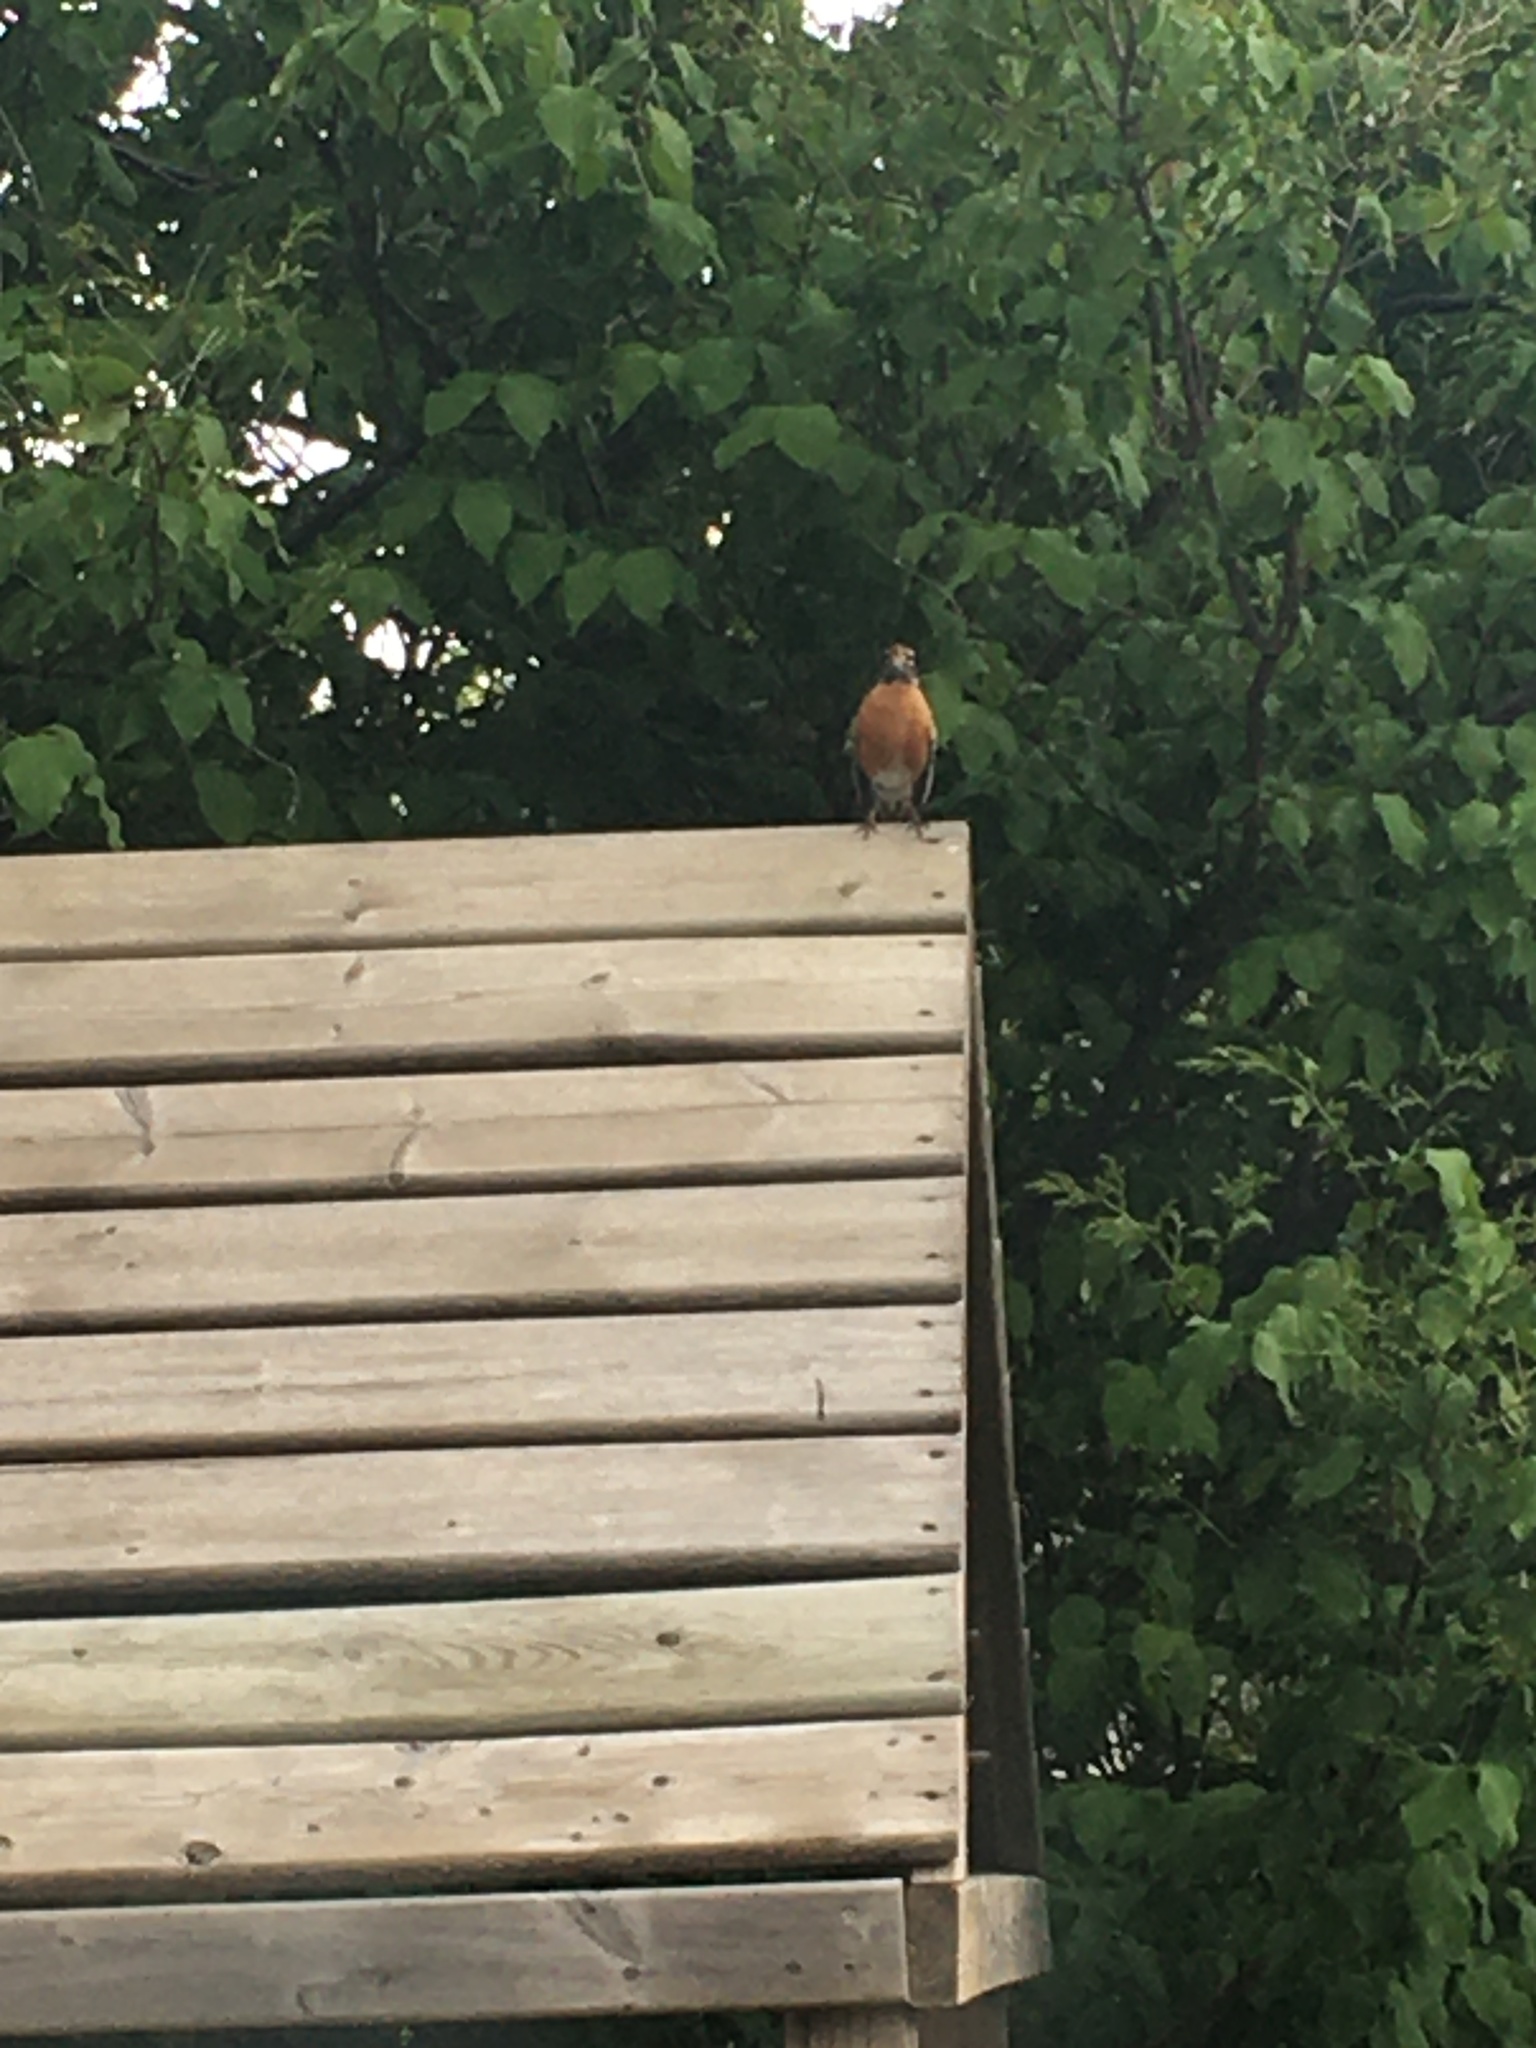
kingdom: Animalia
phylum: Chordata
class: Aves
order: Passeriformes
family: Turdidae
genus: Turdus
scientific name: Turdus migratorius
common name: American robin
